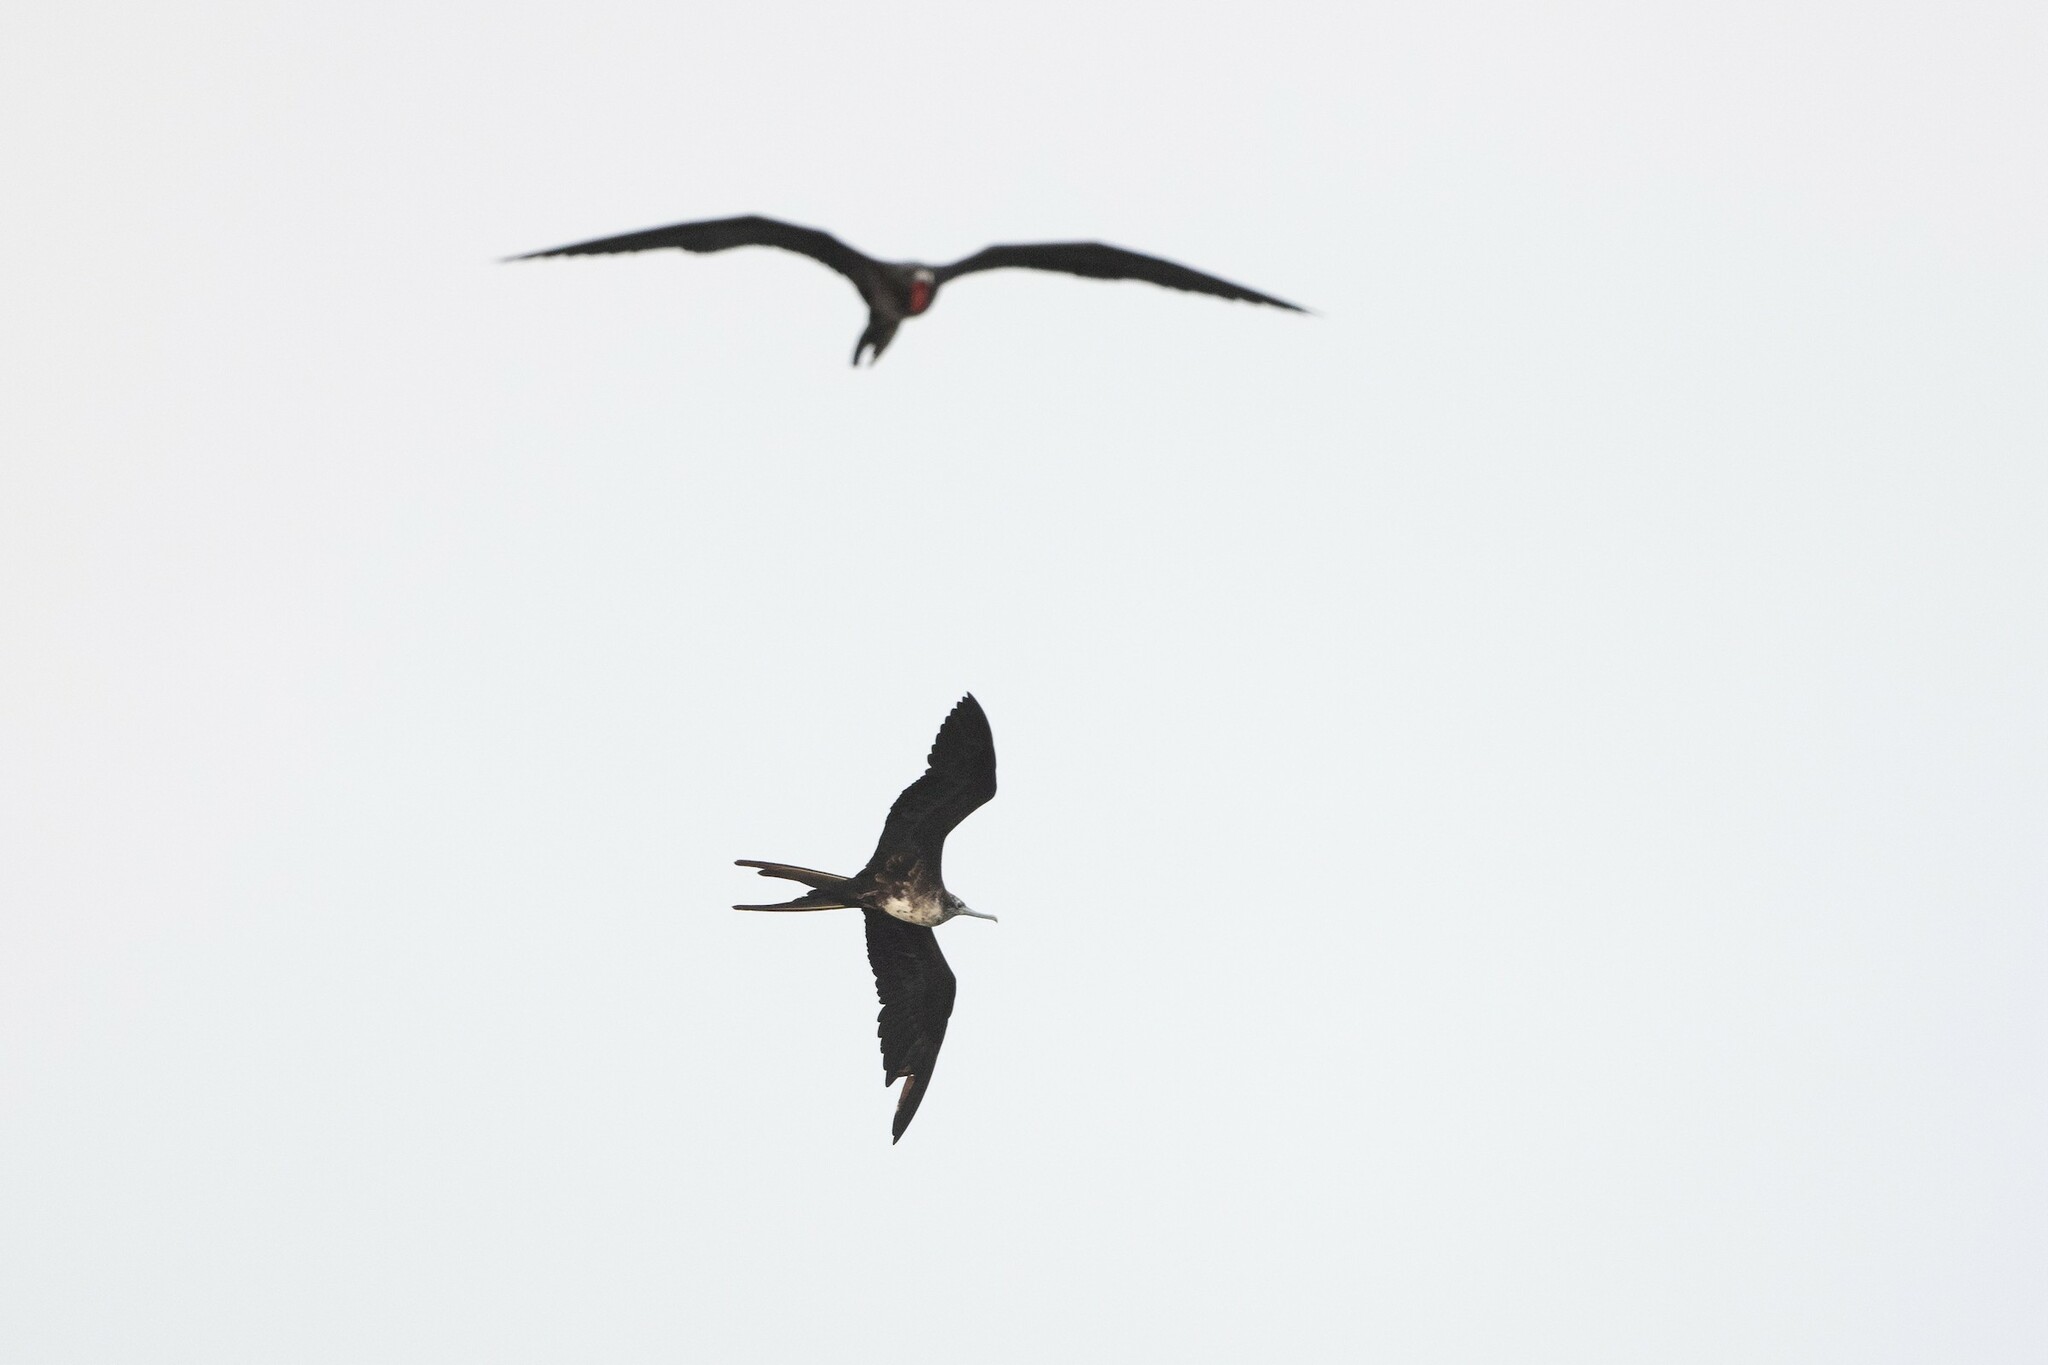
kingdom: Animalia
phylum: Chordata
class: Aves
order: Suliformes
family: Fregatidae
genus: Fregata
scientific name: Fregata magnificens
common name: Magnificent frigatebird
